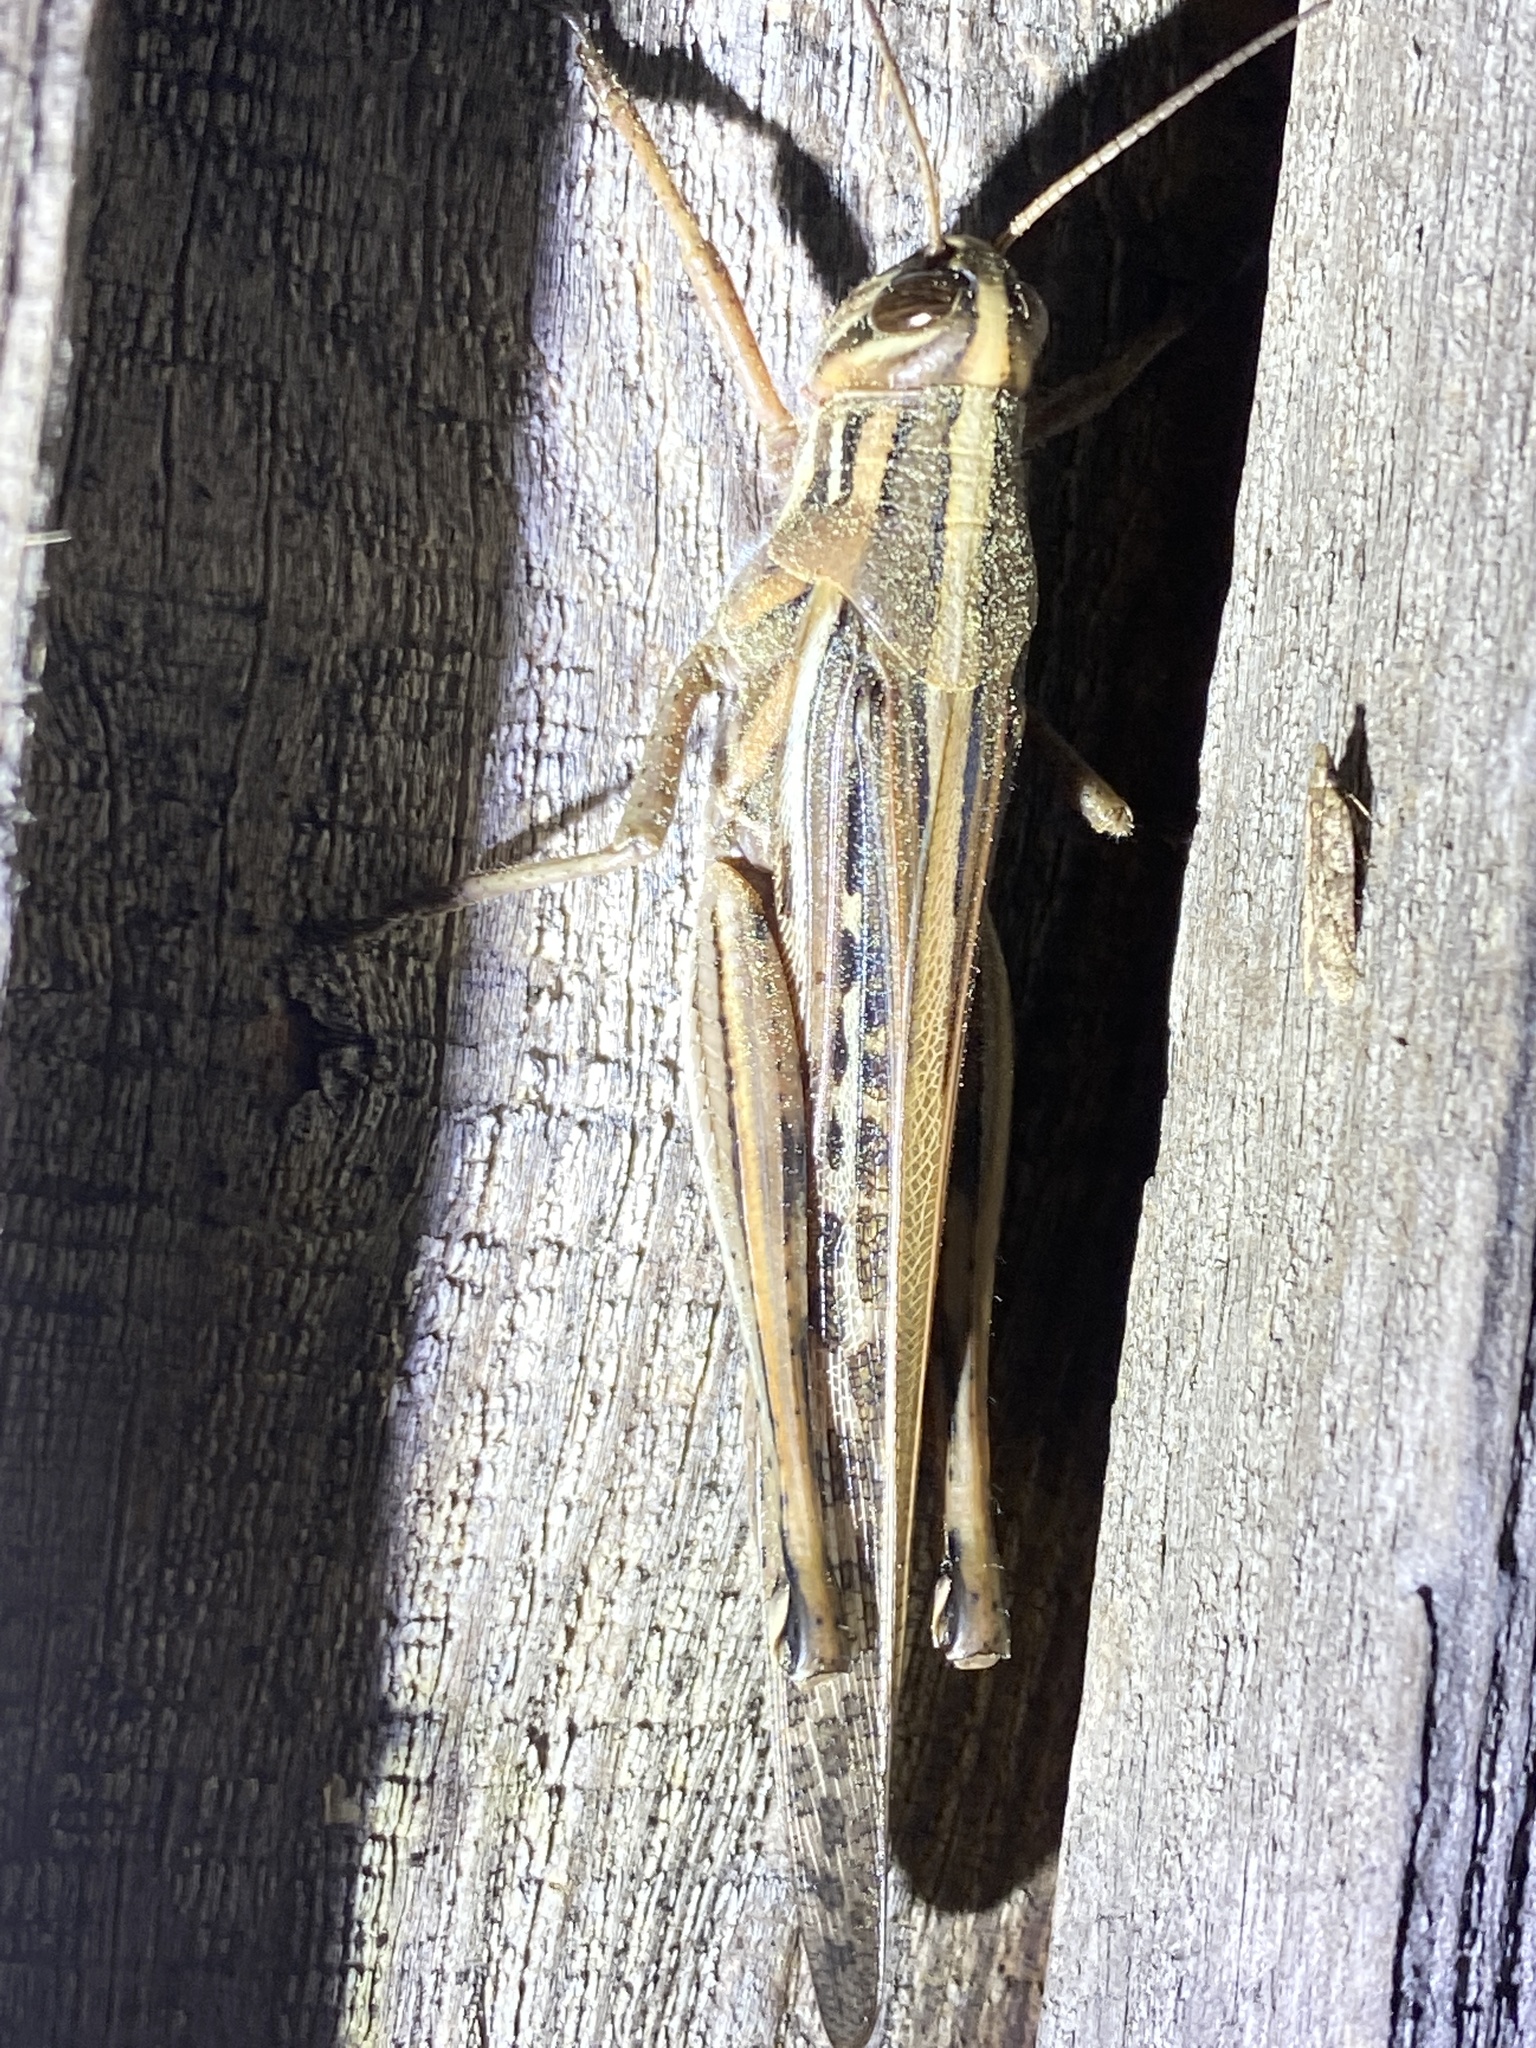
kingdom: Animalia
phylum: Arthropoda
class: Insecta
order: Orthoptera
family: Acrididae
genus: Schistocerca
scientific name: Schistocerca americana
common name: American bird locust
